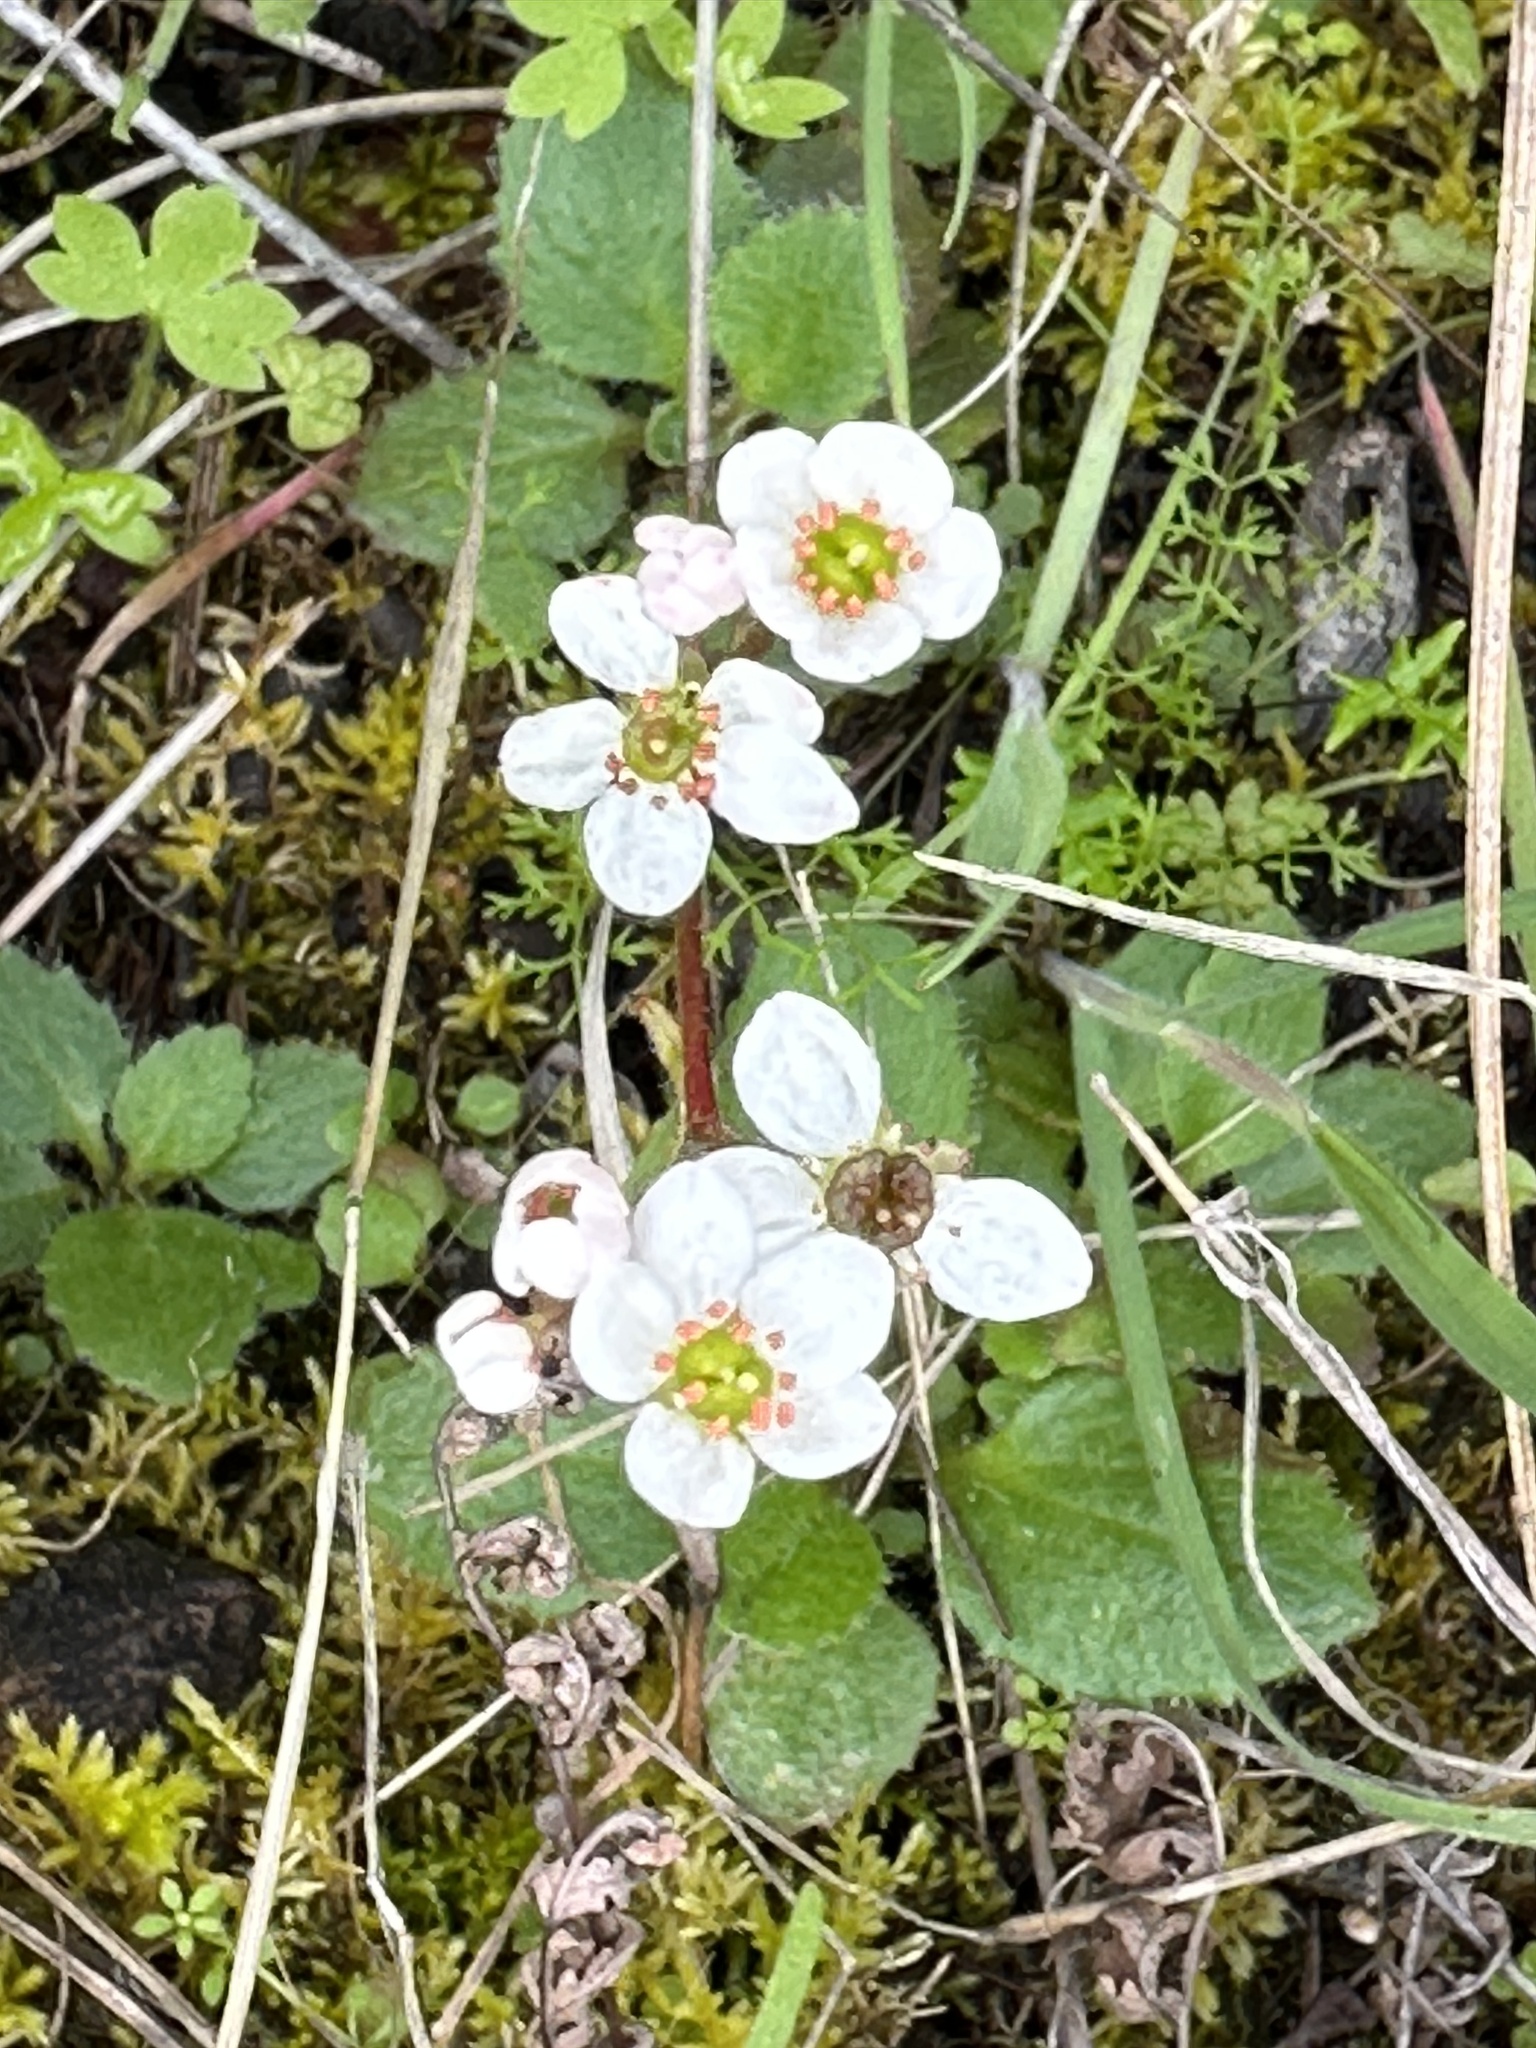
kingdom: Plantae
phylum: Tracheophyta
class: Magnoliopsida
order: Saxifragales
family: Saxifragaceae
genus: Micranthes
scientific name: Micranthes californica
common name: California saxifrage
